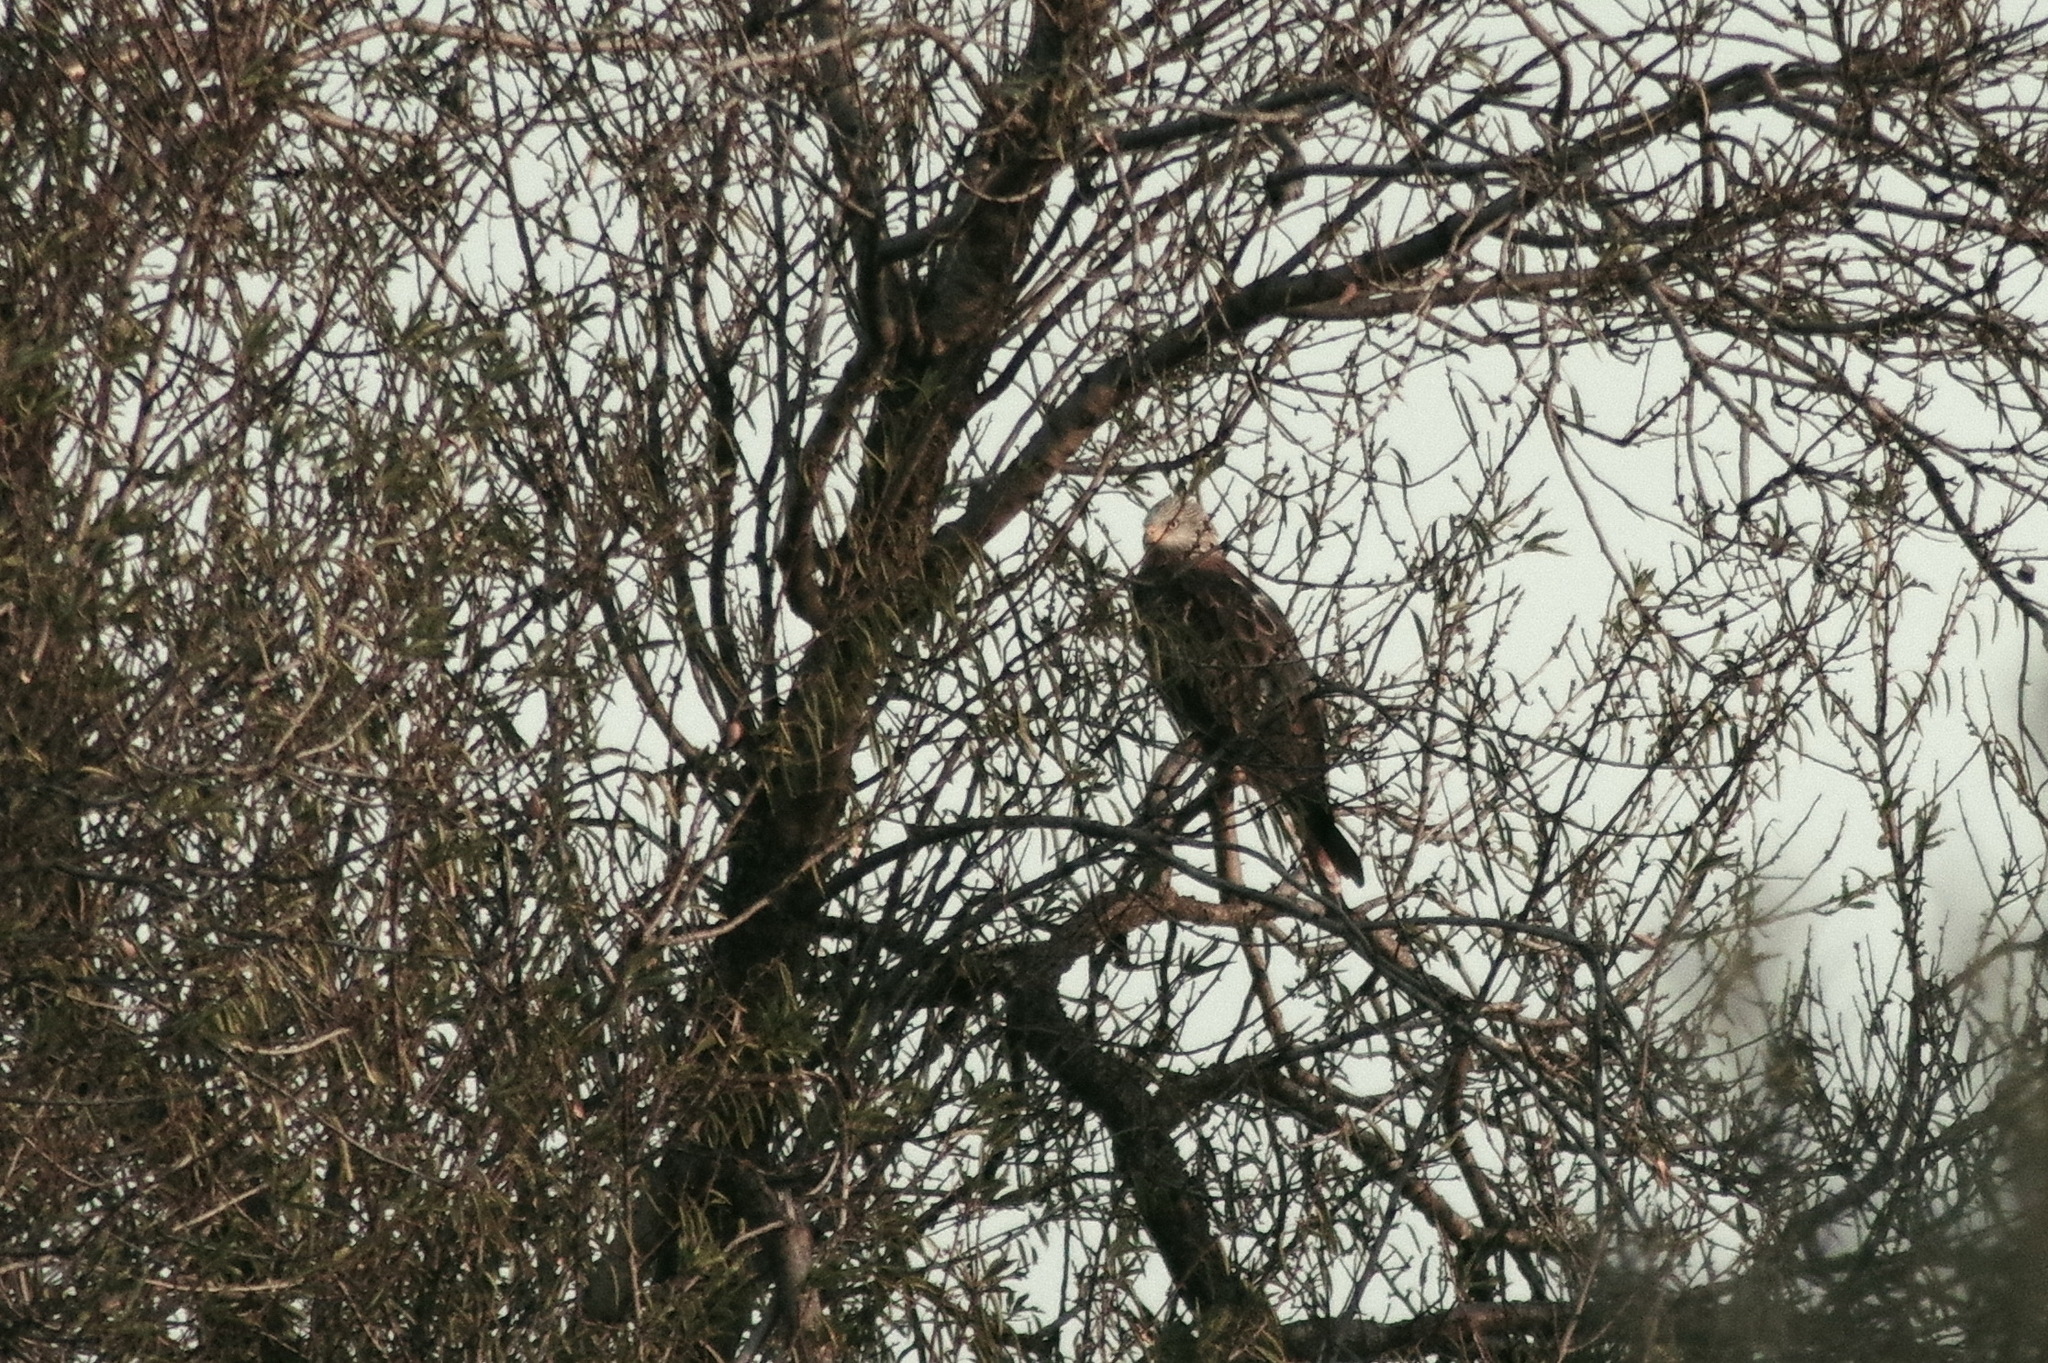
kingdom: Animalia
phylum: Chordata
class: Aves
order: Accipitriformes
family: Accipitridae
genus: Milvus
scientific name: Milvus milvus
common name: Red kite
